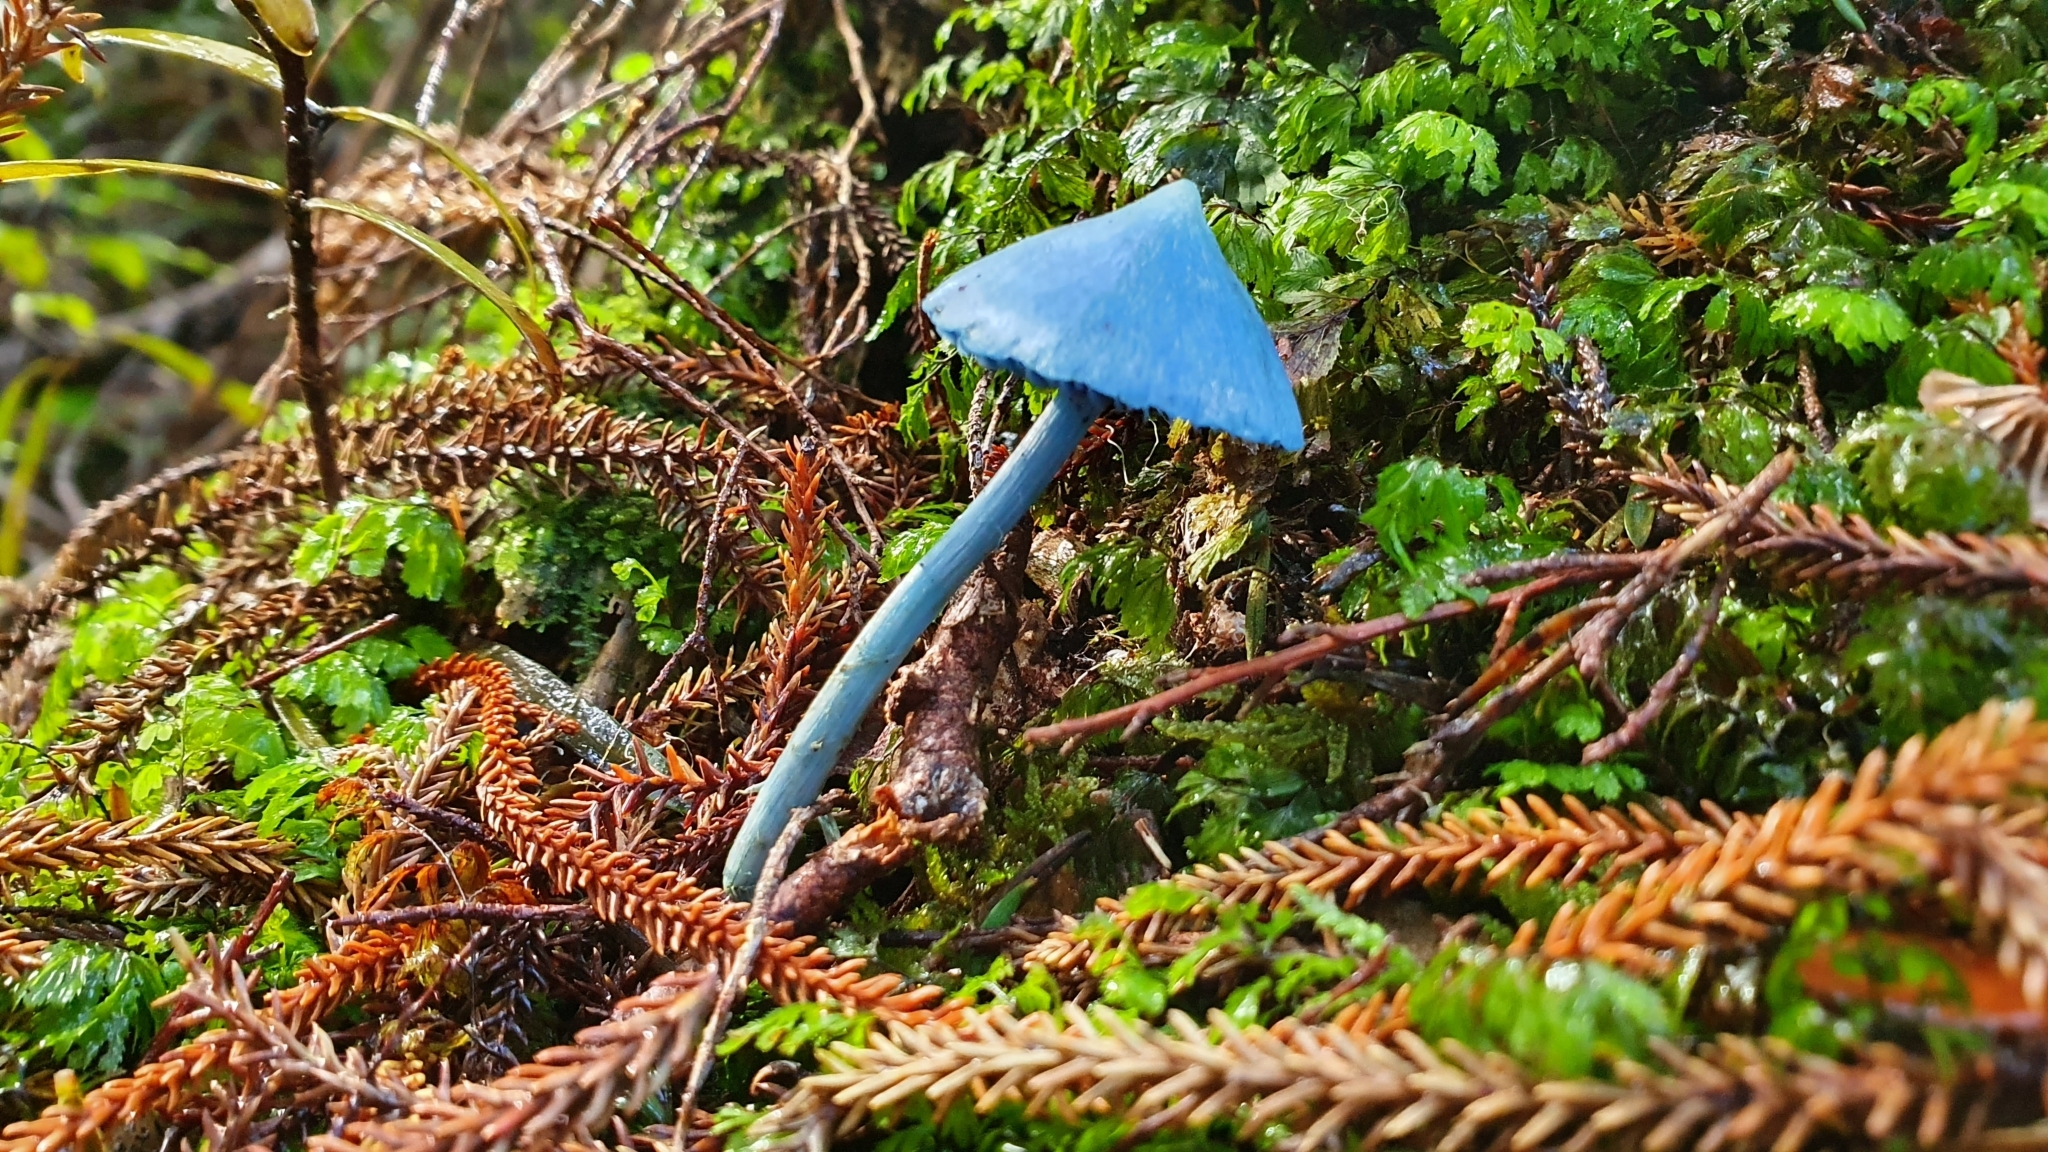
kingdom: Fungi
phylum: Basidiomycota
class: Agaricomycetes
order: Agaricales
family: Entolomataceae
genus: Entoloma
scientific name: Entoloma hochstetteri
